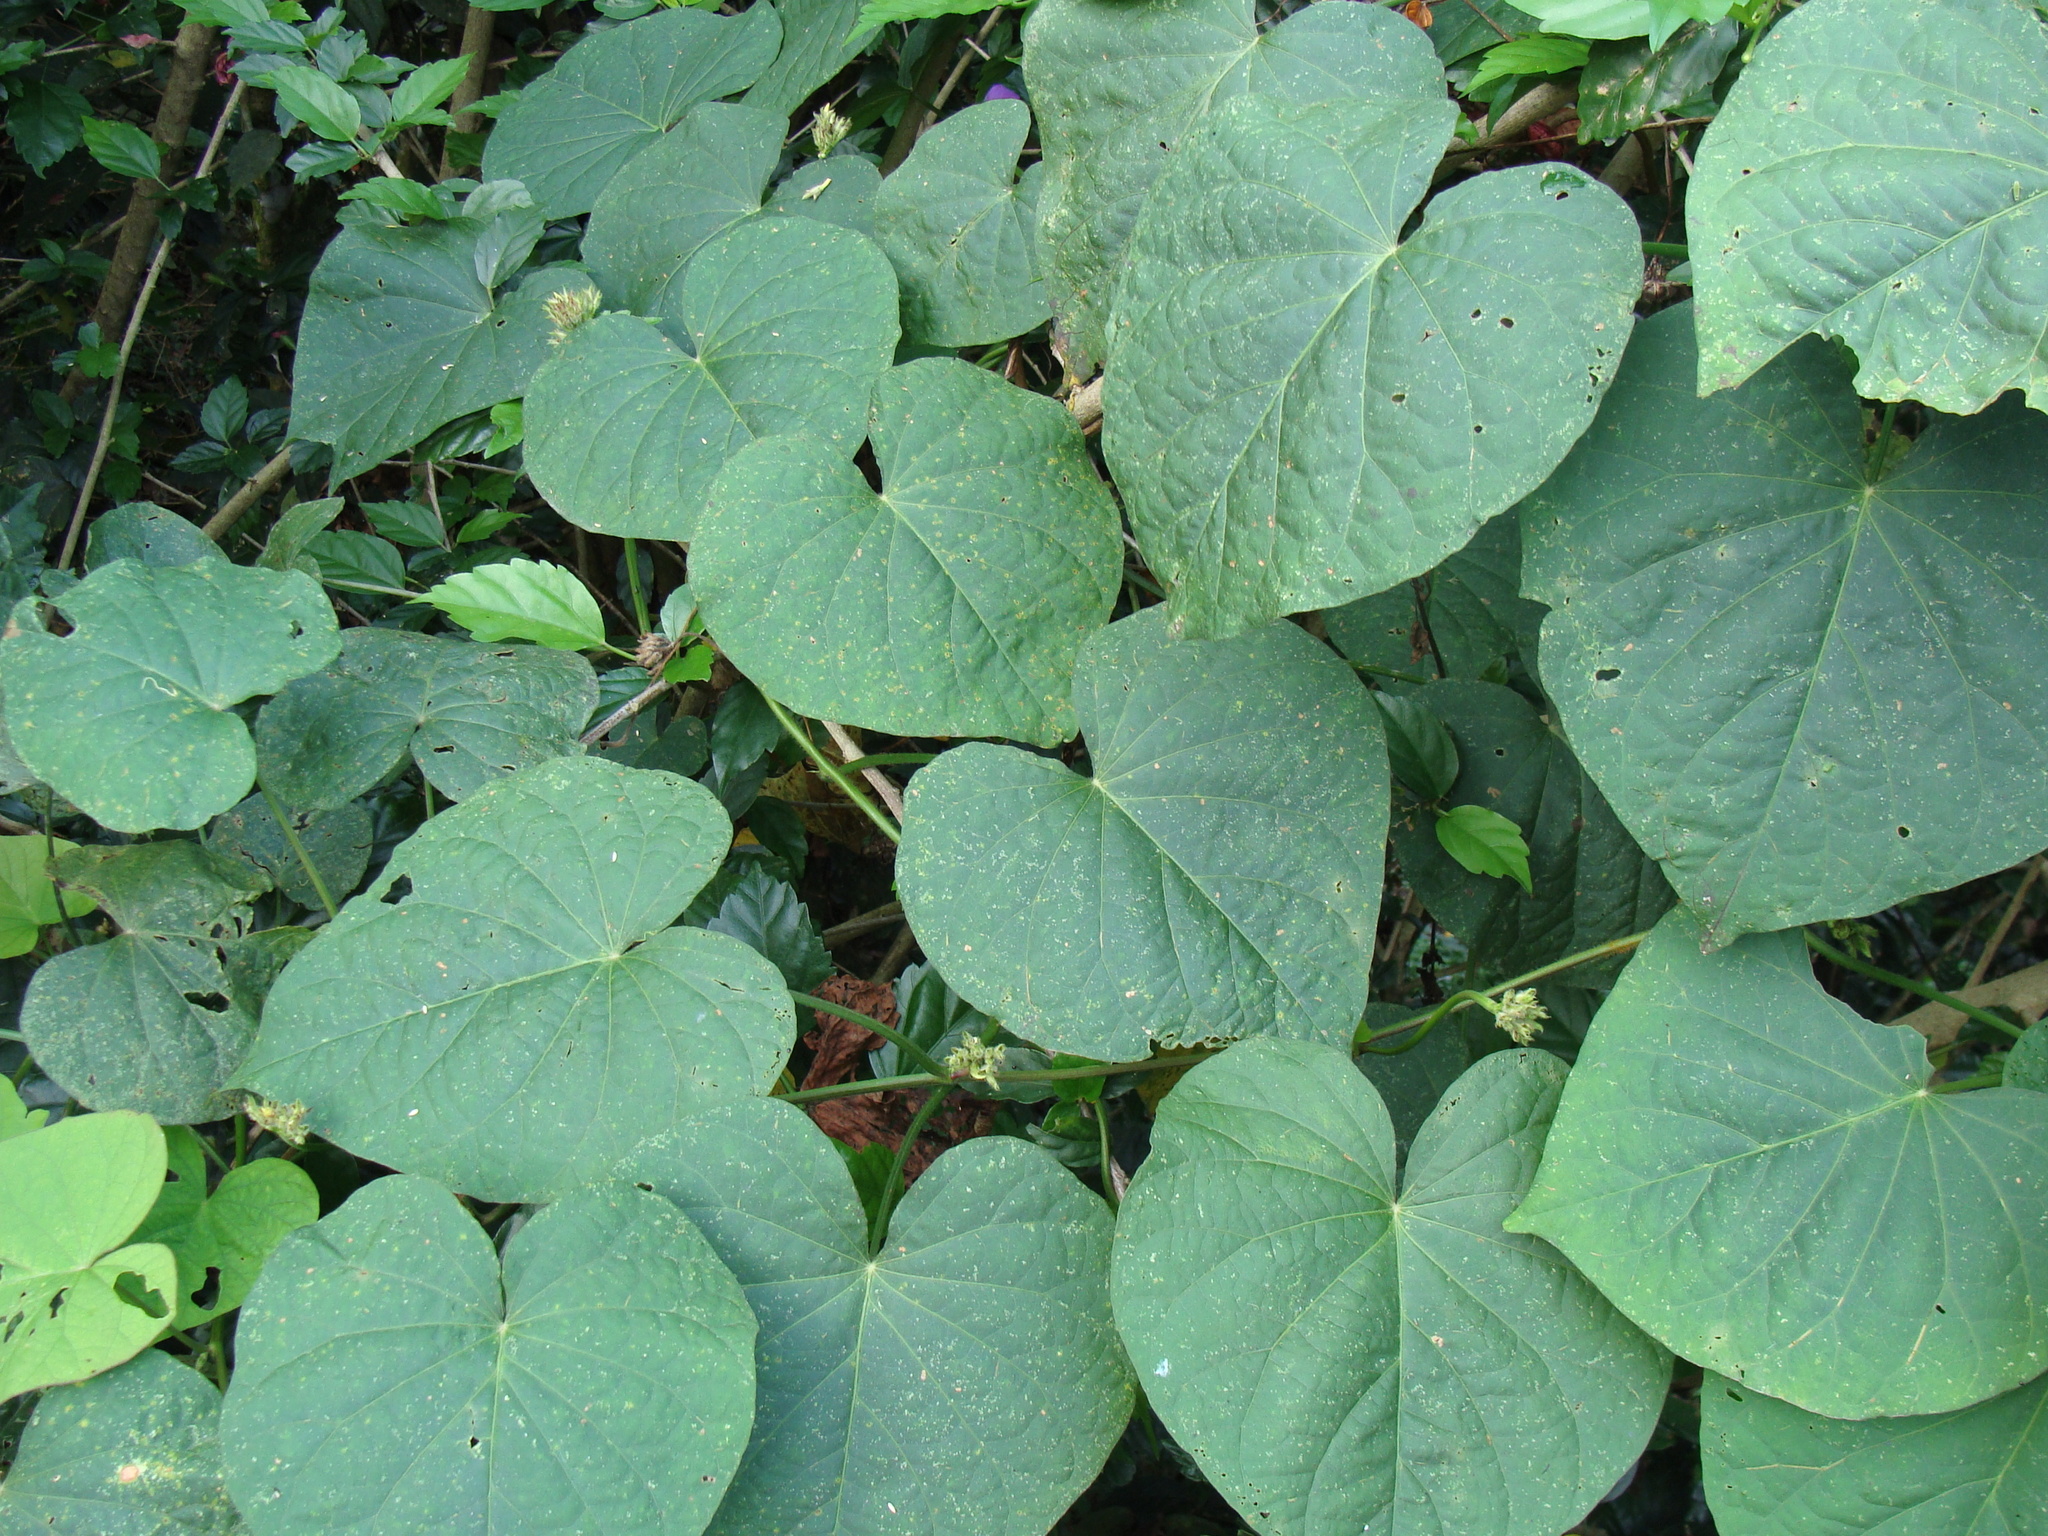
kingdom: Plantae
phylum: Tracheophyta
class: Magnoliopsida
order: Solanales
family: Convolvulaceae
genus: Ipomoea
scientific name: Ipomoea batatas
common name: Sweet-potato
